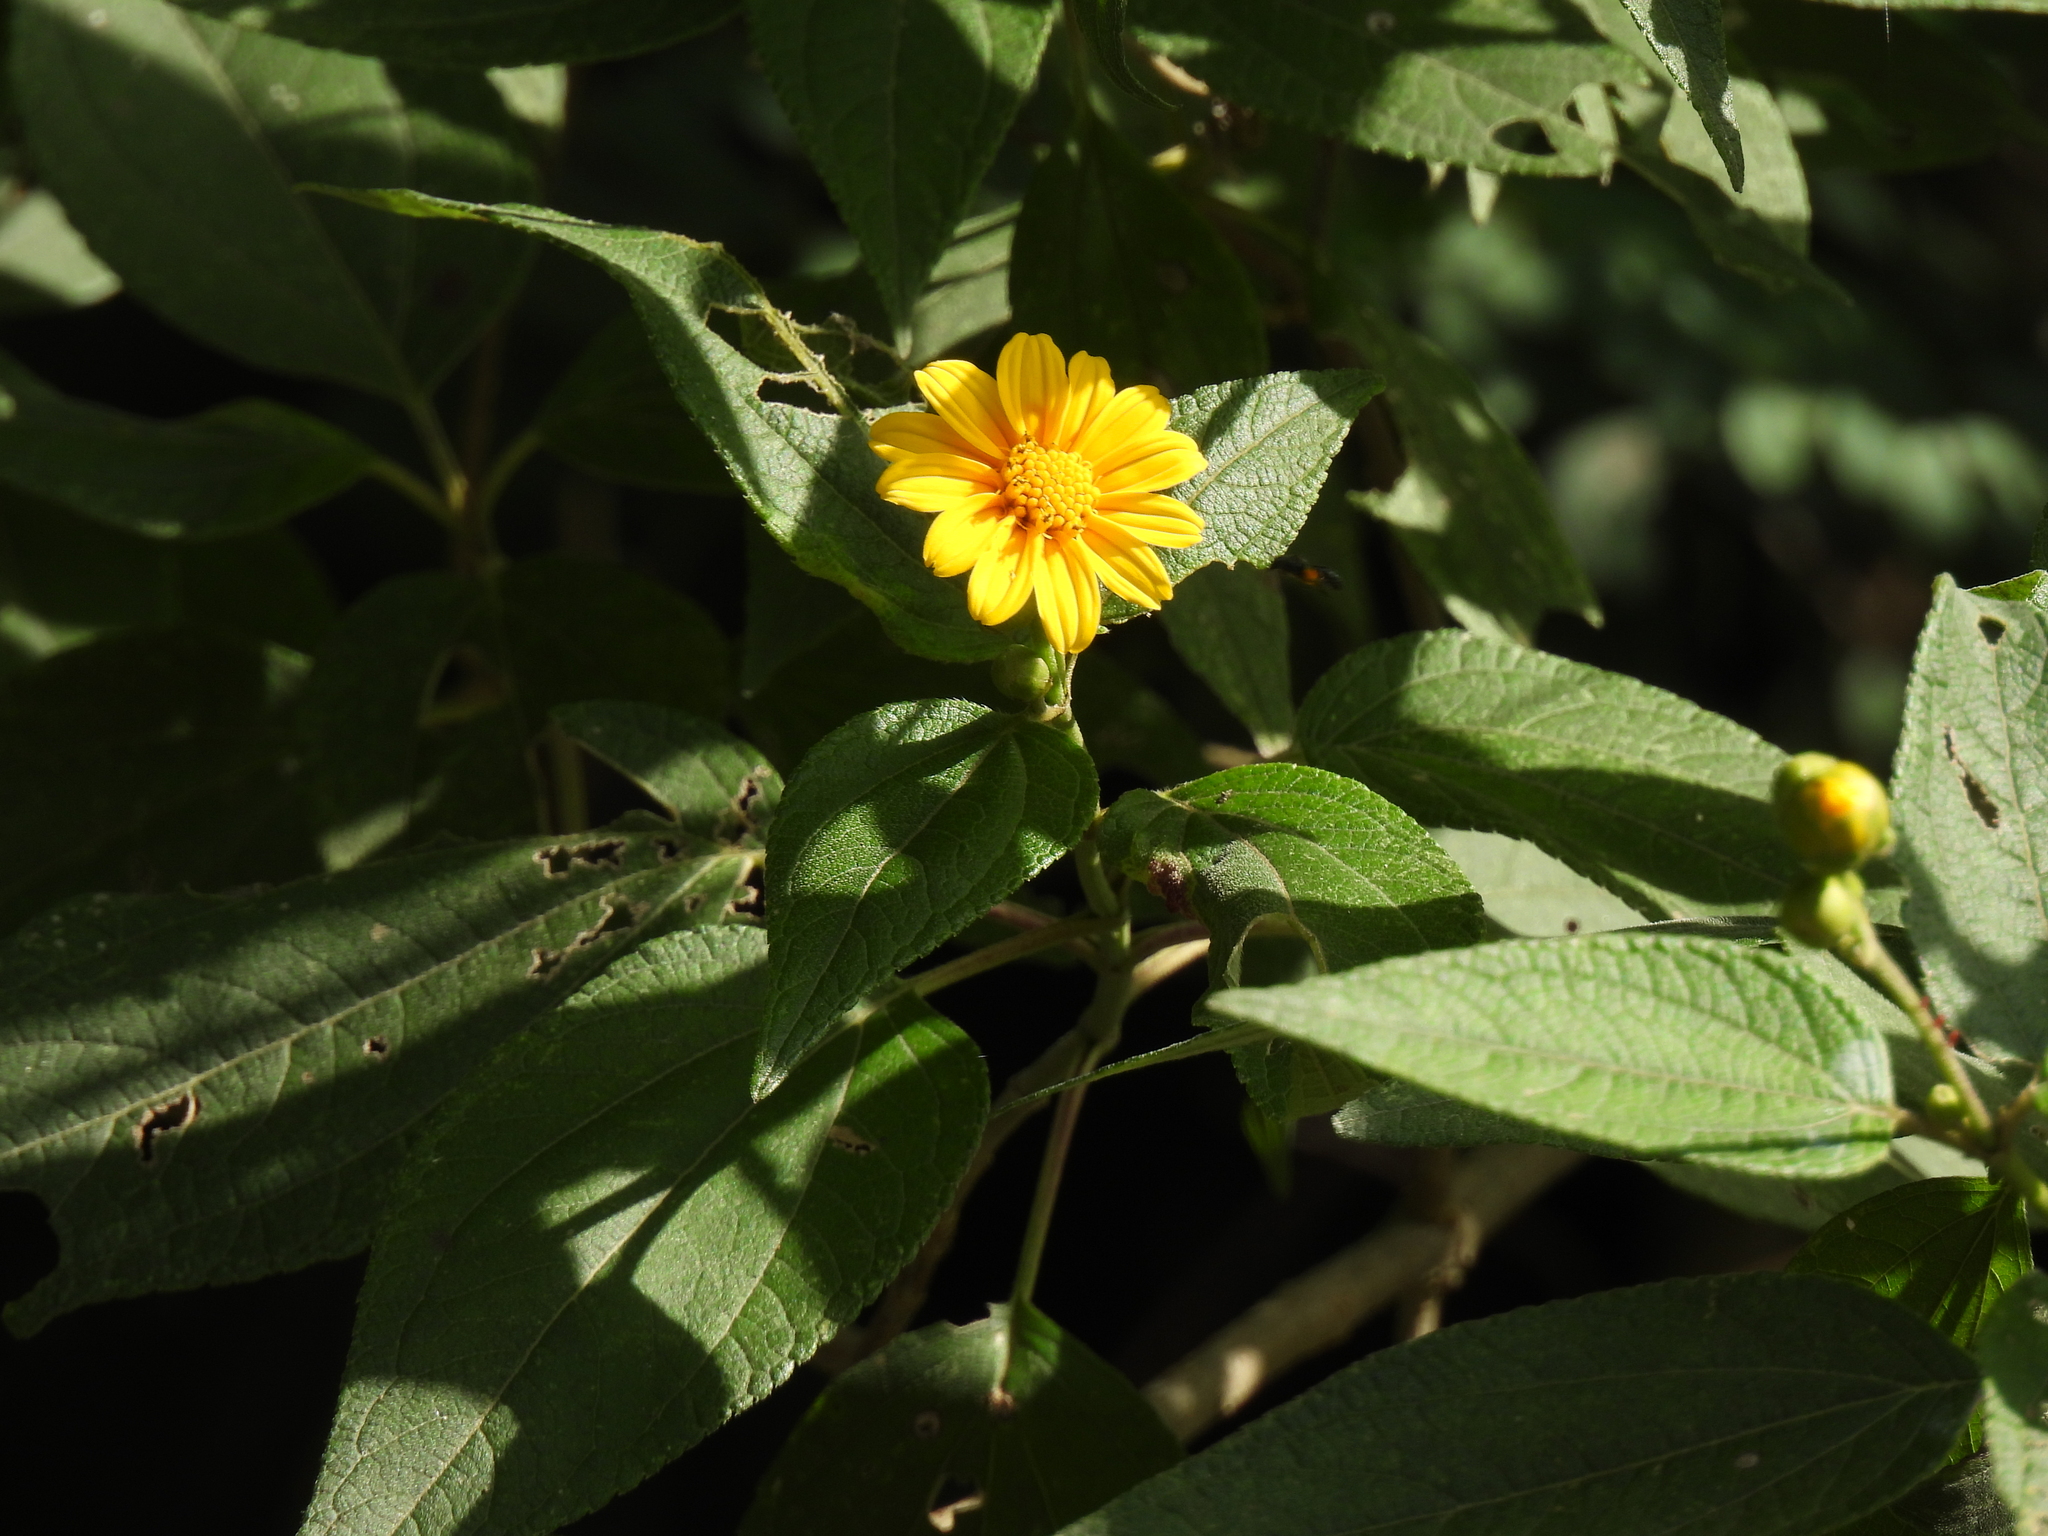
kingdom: Plantae
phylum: Tracheophyta
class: Magnoliopsida
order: Asterales
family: Asteraceae
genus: Lasianthaea
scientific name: Lasianthaea fruticosa
